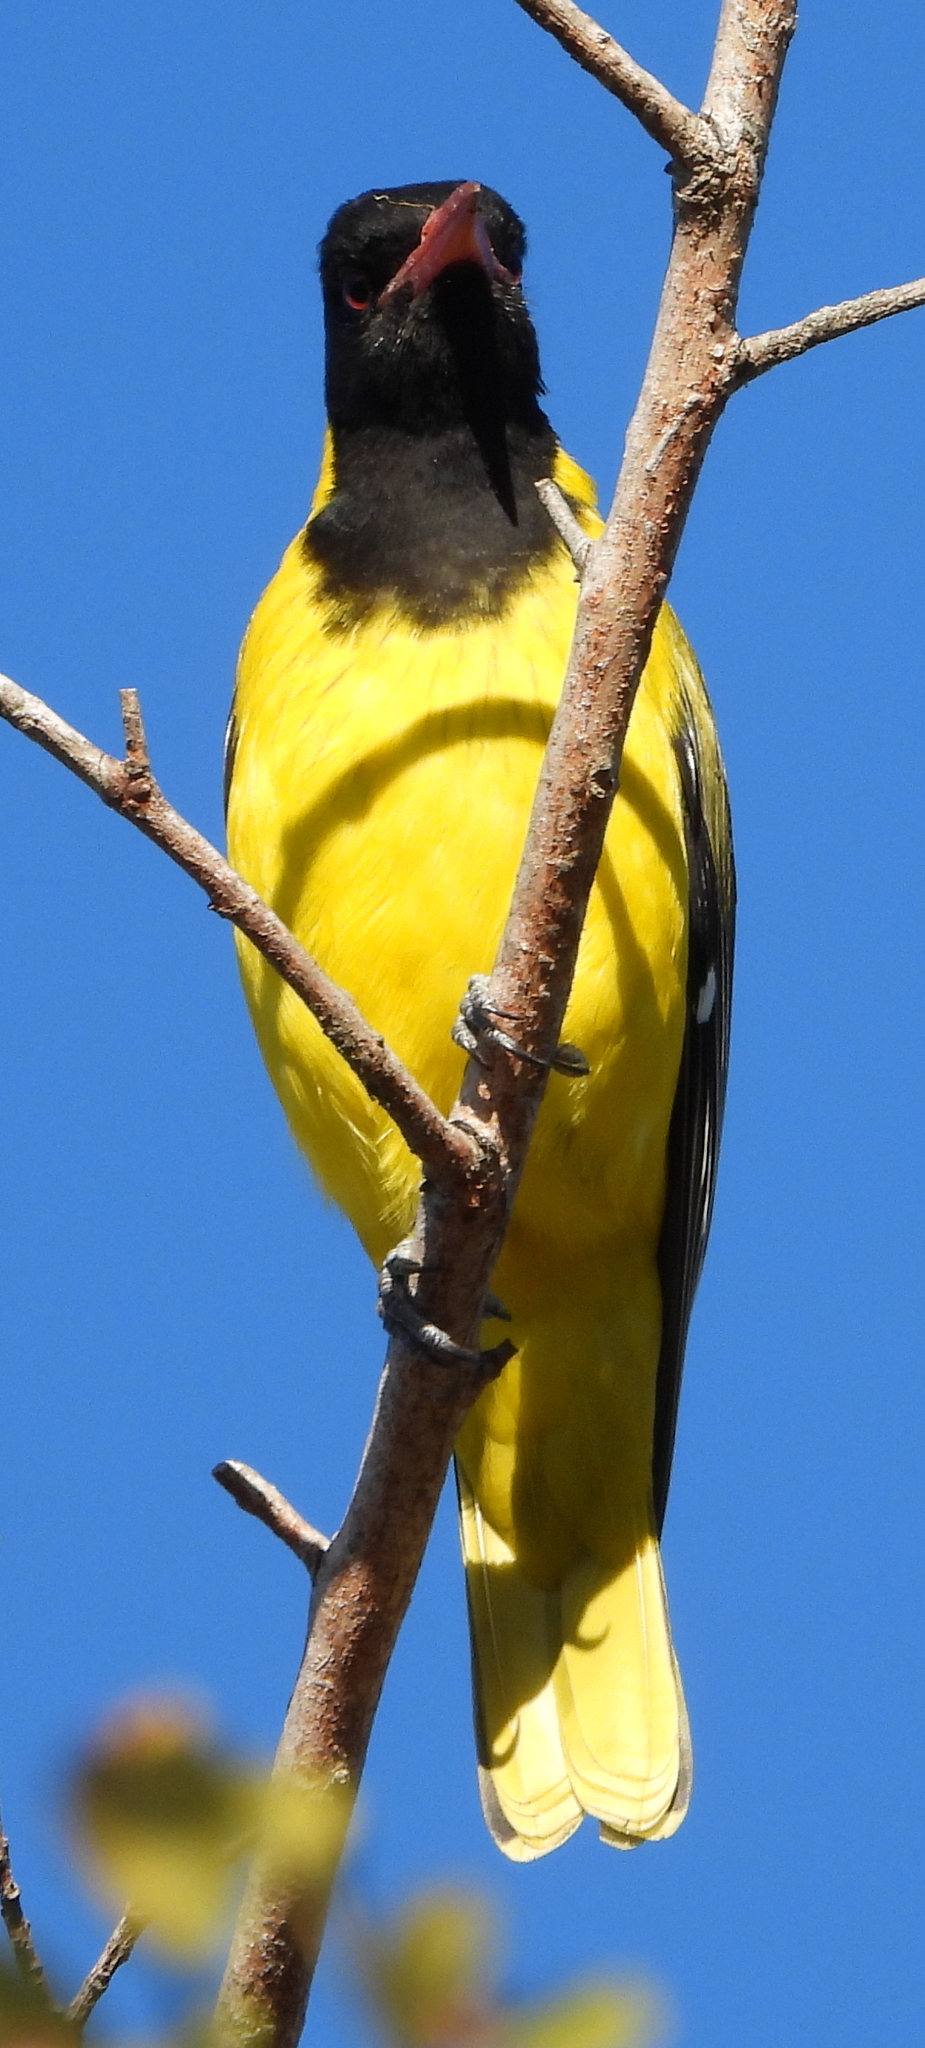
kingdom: Animalia
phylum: Chordata
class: Aves
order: Passeriformes
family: Oriolidae
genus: Oriolus
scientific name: Oriolus larvatus
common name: Black-headed oriole
